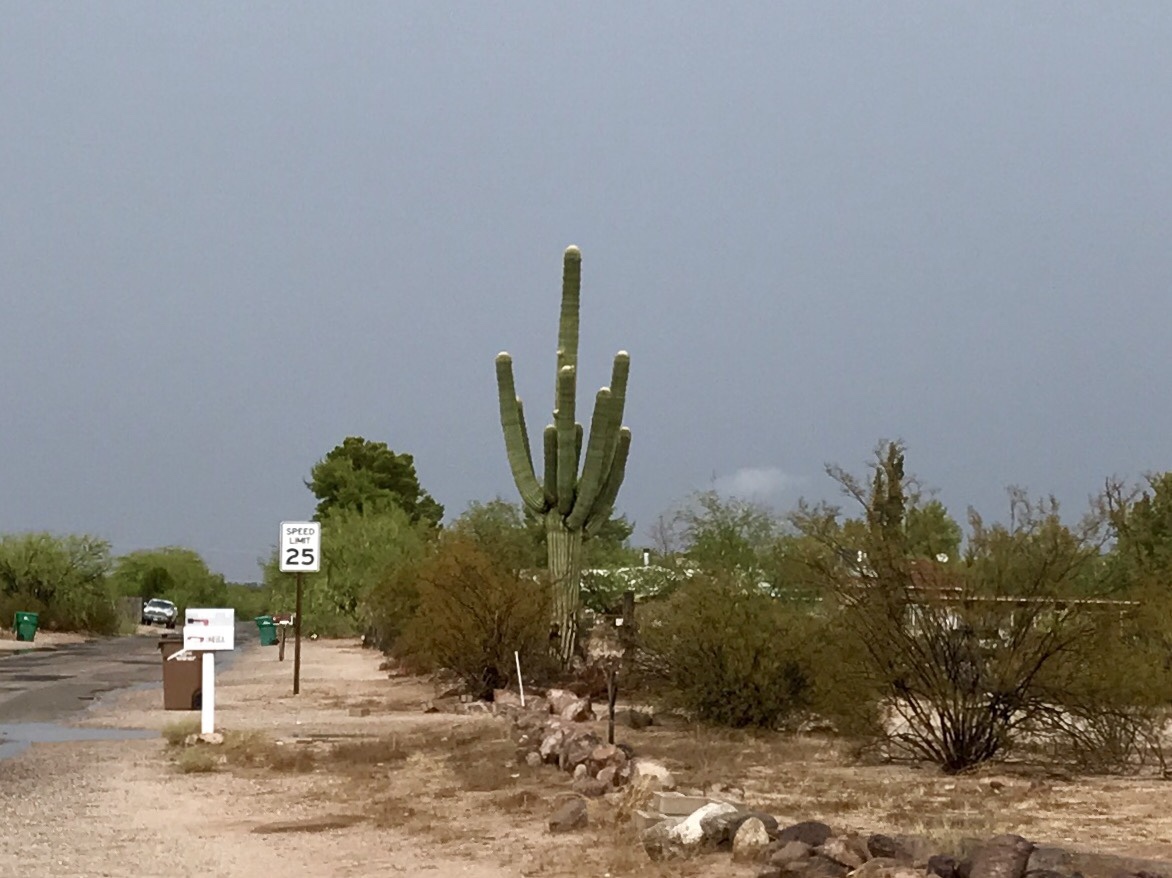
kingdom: Plantae
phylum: Tracheophyta
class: Magnoliopsida
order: Caryophyllales
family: Cactaceae
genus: Carnegiea
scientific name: Carnegiea gigantea
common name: Saguaro
